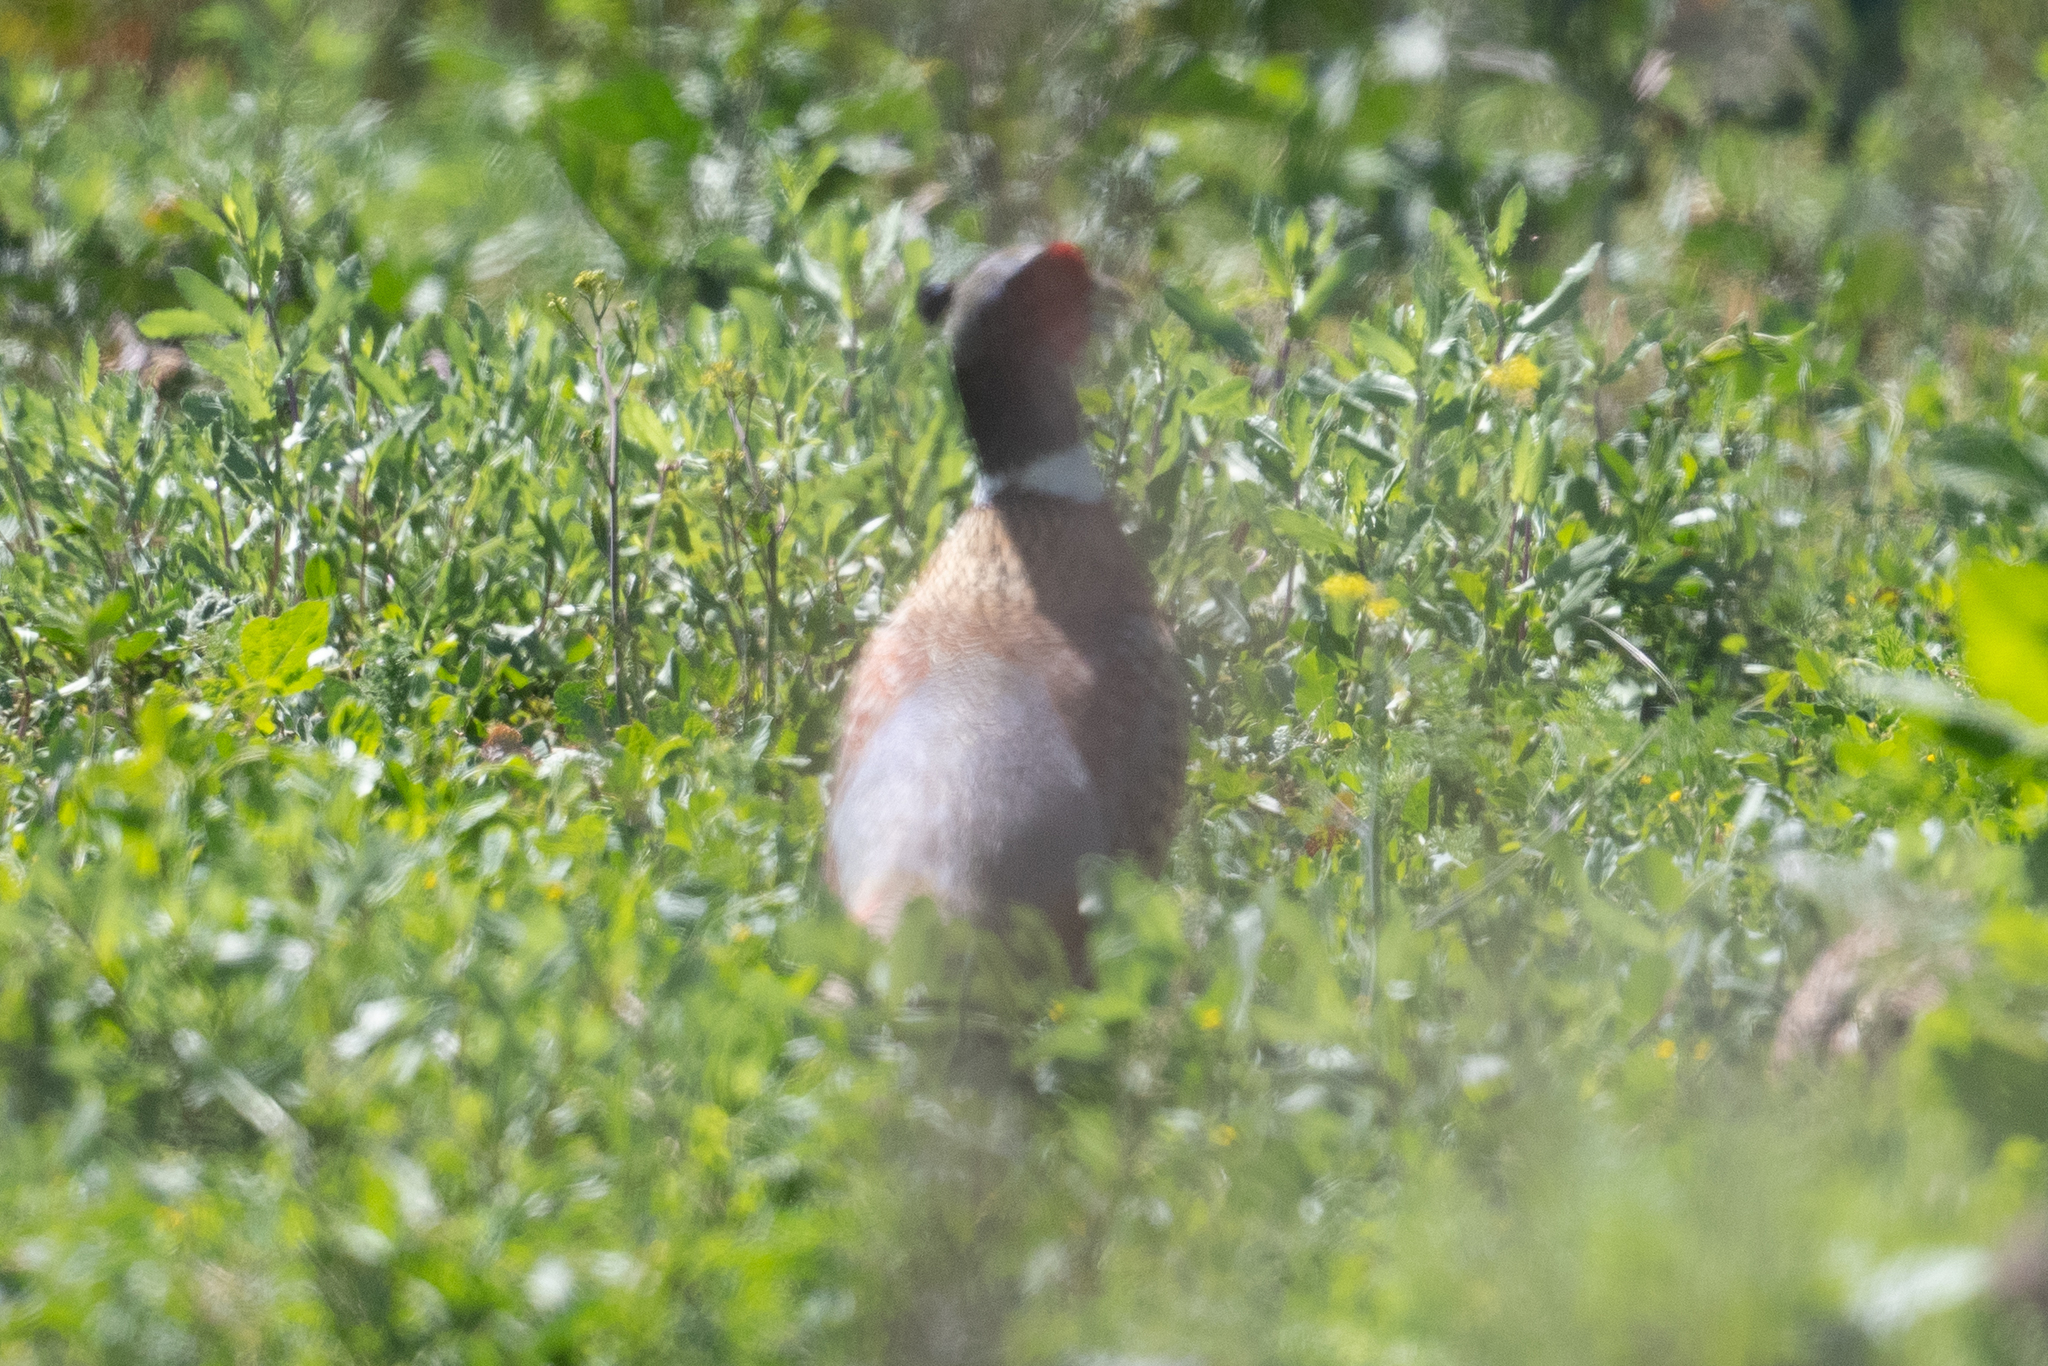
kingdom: Animalia
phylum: Chordata
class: Aves
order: Galliformes
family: Phasianidae
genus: Phasianus
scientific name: Phasianus colchicus
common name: Common pheasant
